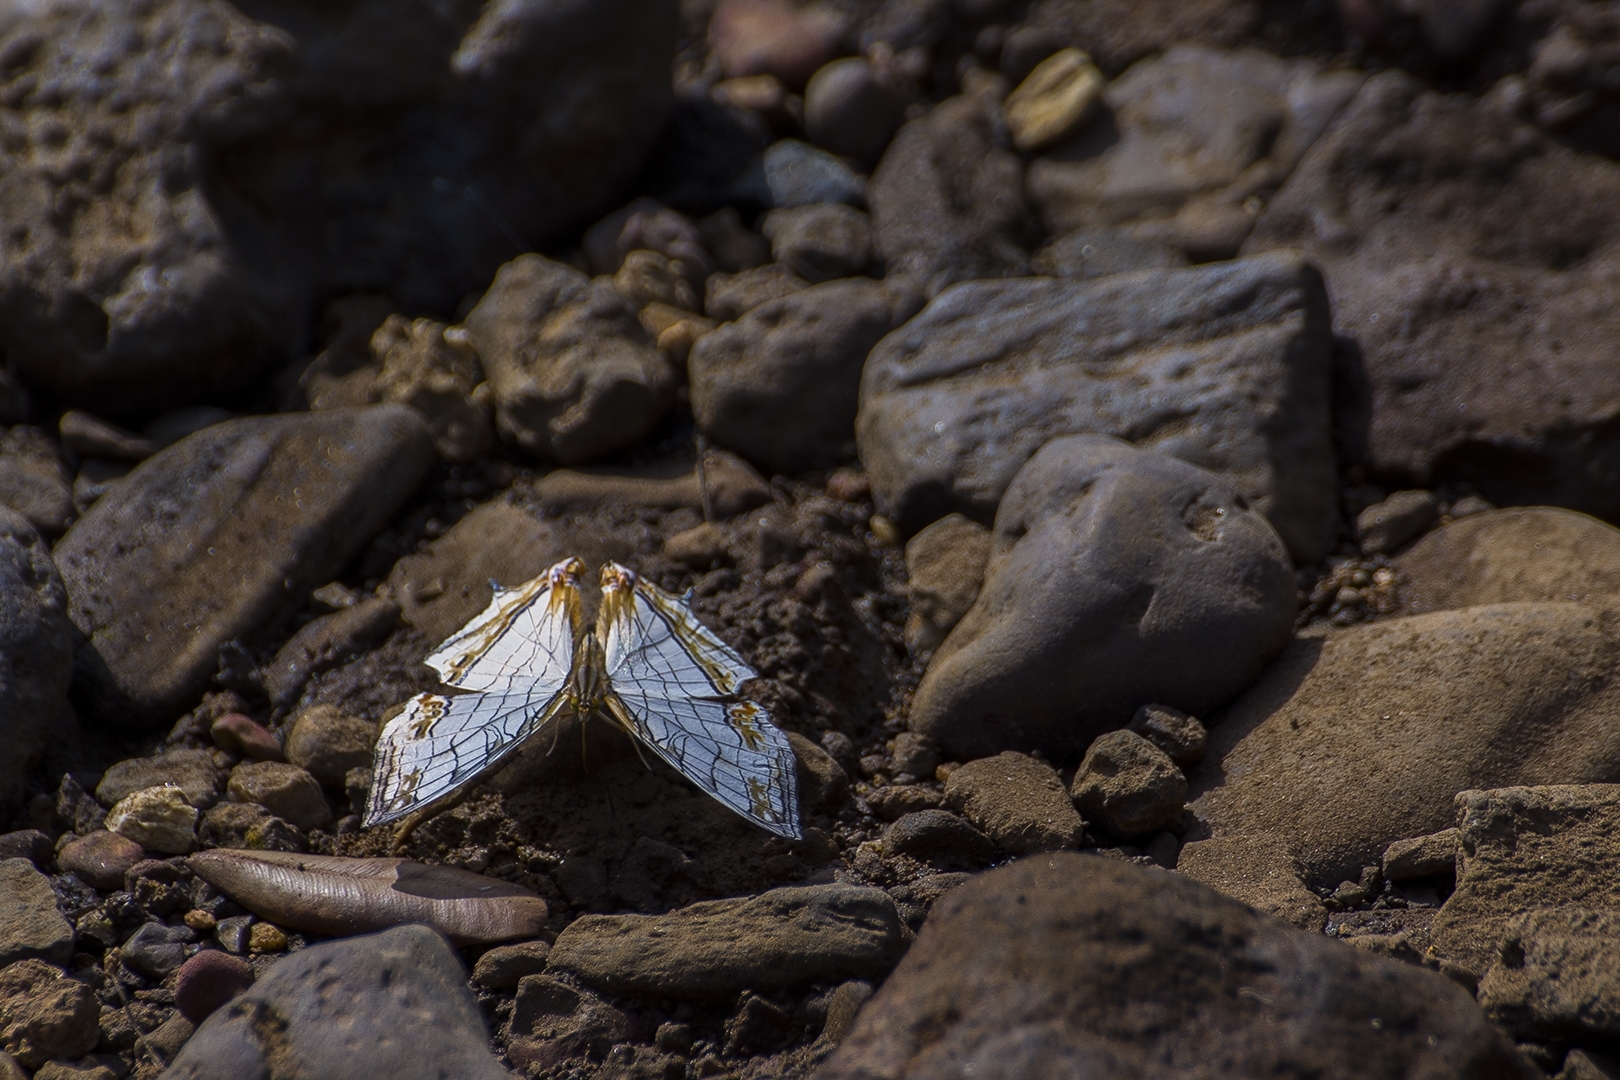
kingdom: Animalia
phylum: Arthropoda
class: Insecta
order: Lepidoptera
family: Nymphalidae
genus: Cyrestis
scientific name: Cyrestis thyodamas
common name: Common mapwing
